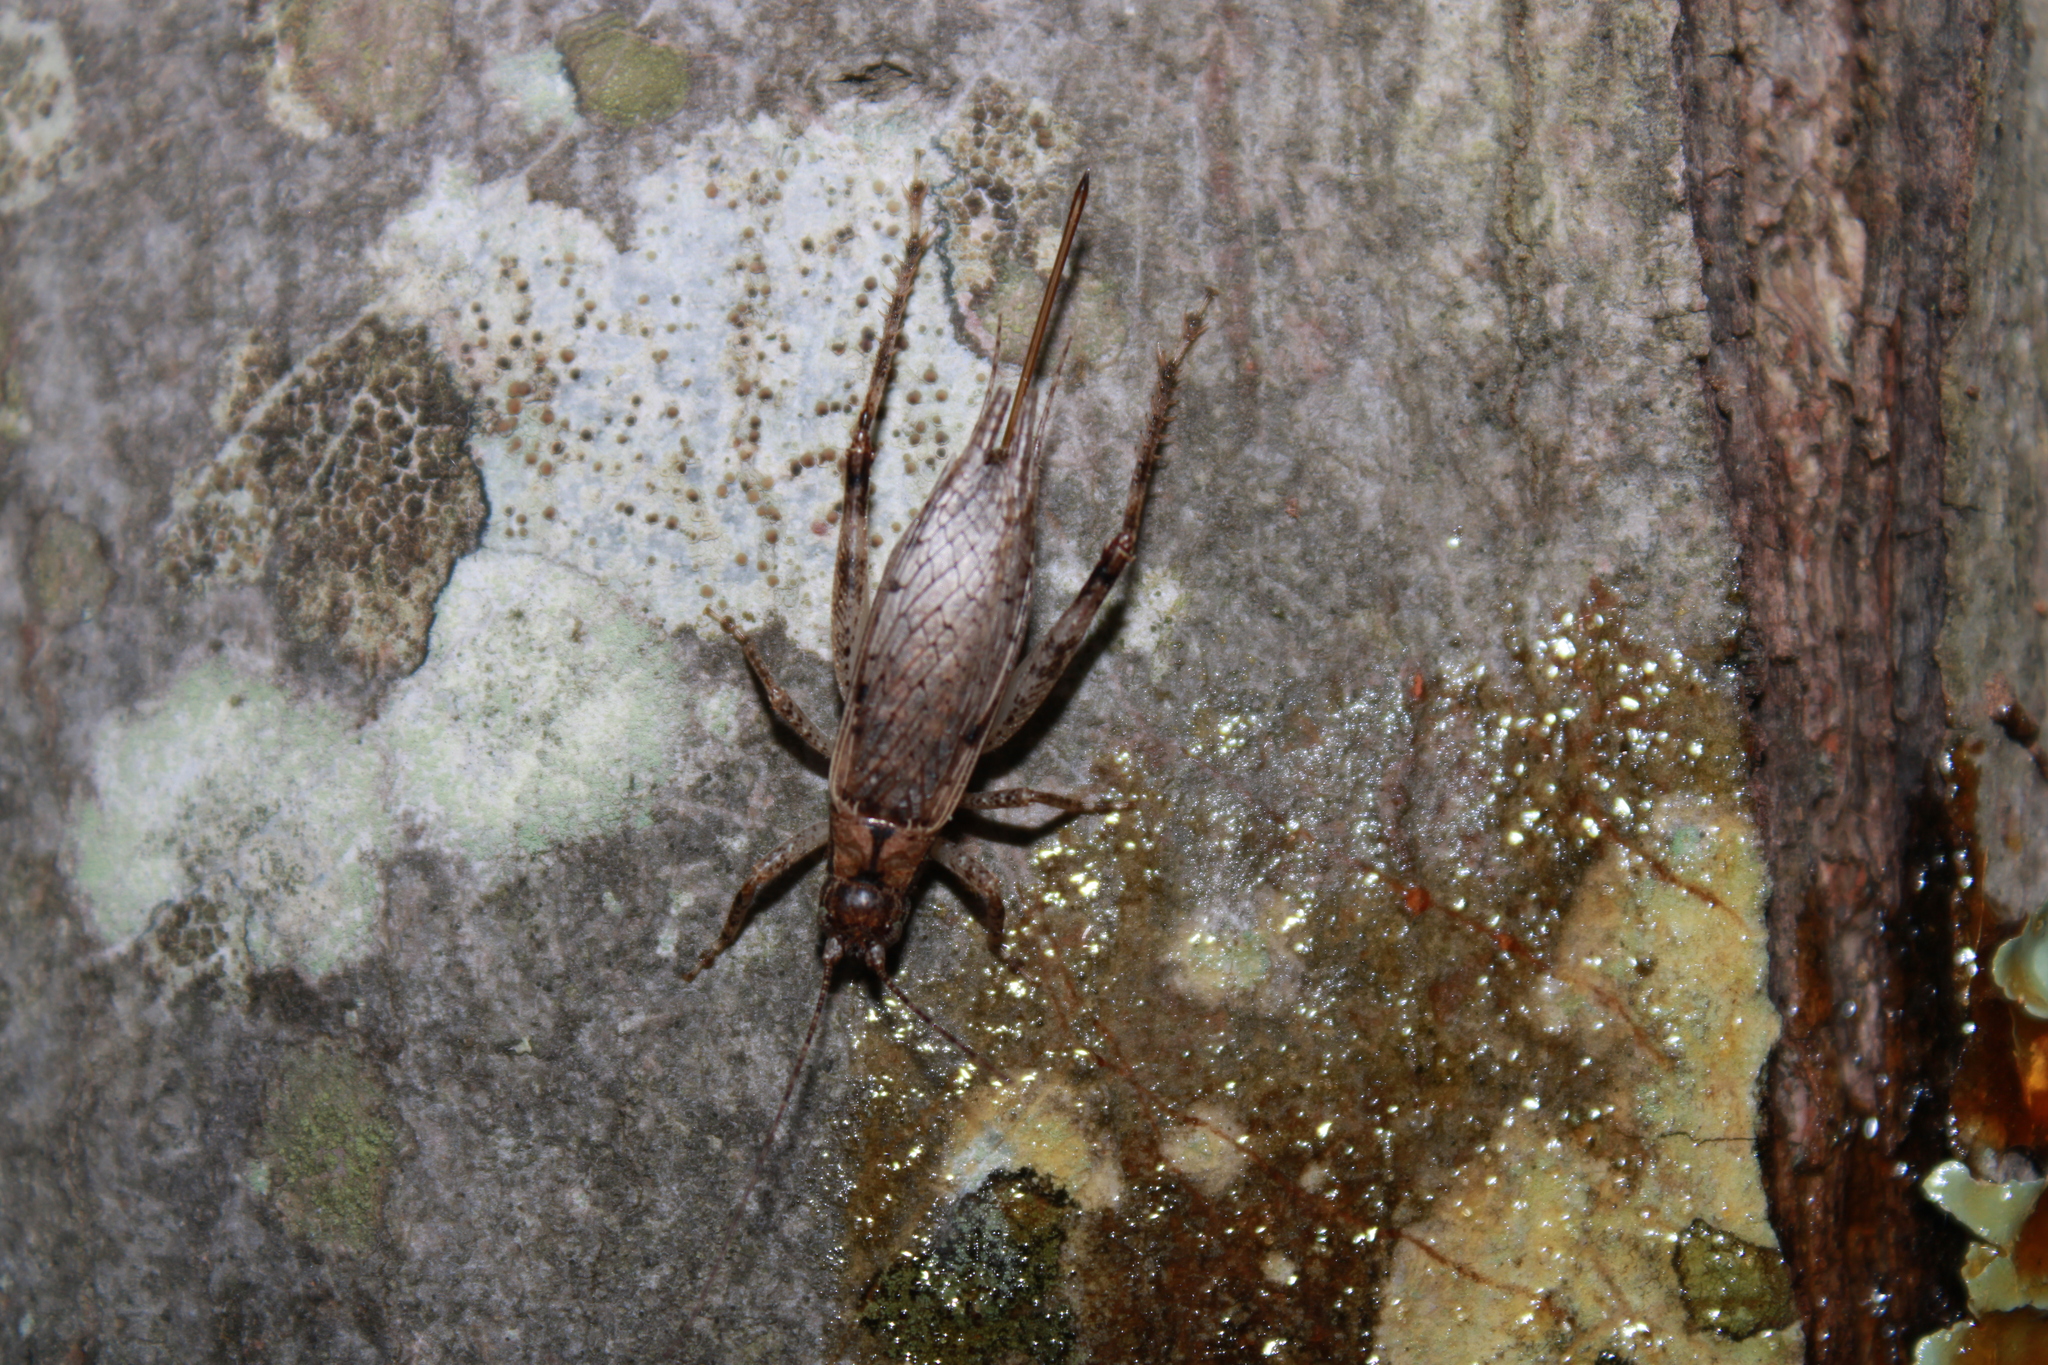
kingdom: Animalia
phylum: Arthropoda
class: Insecta
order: Orthoptera
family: Gryllidae
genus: Hapithus
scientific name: Hapithus saltator
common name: Jumping bush cricket
